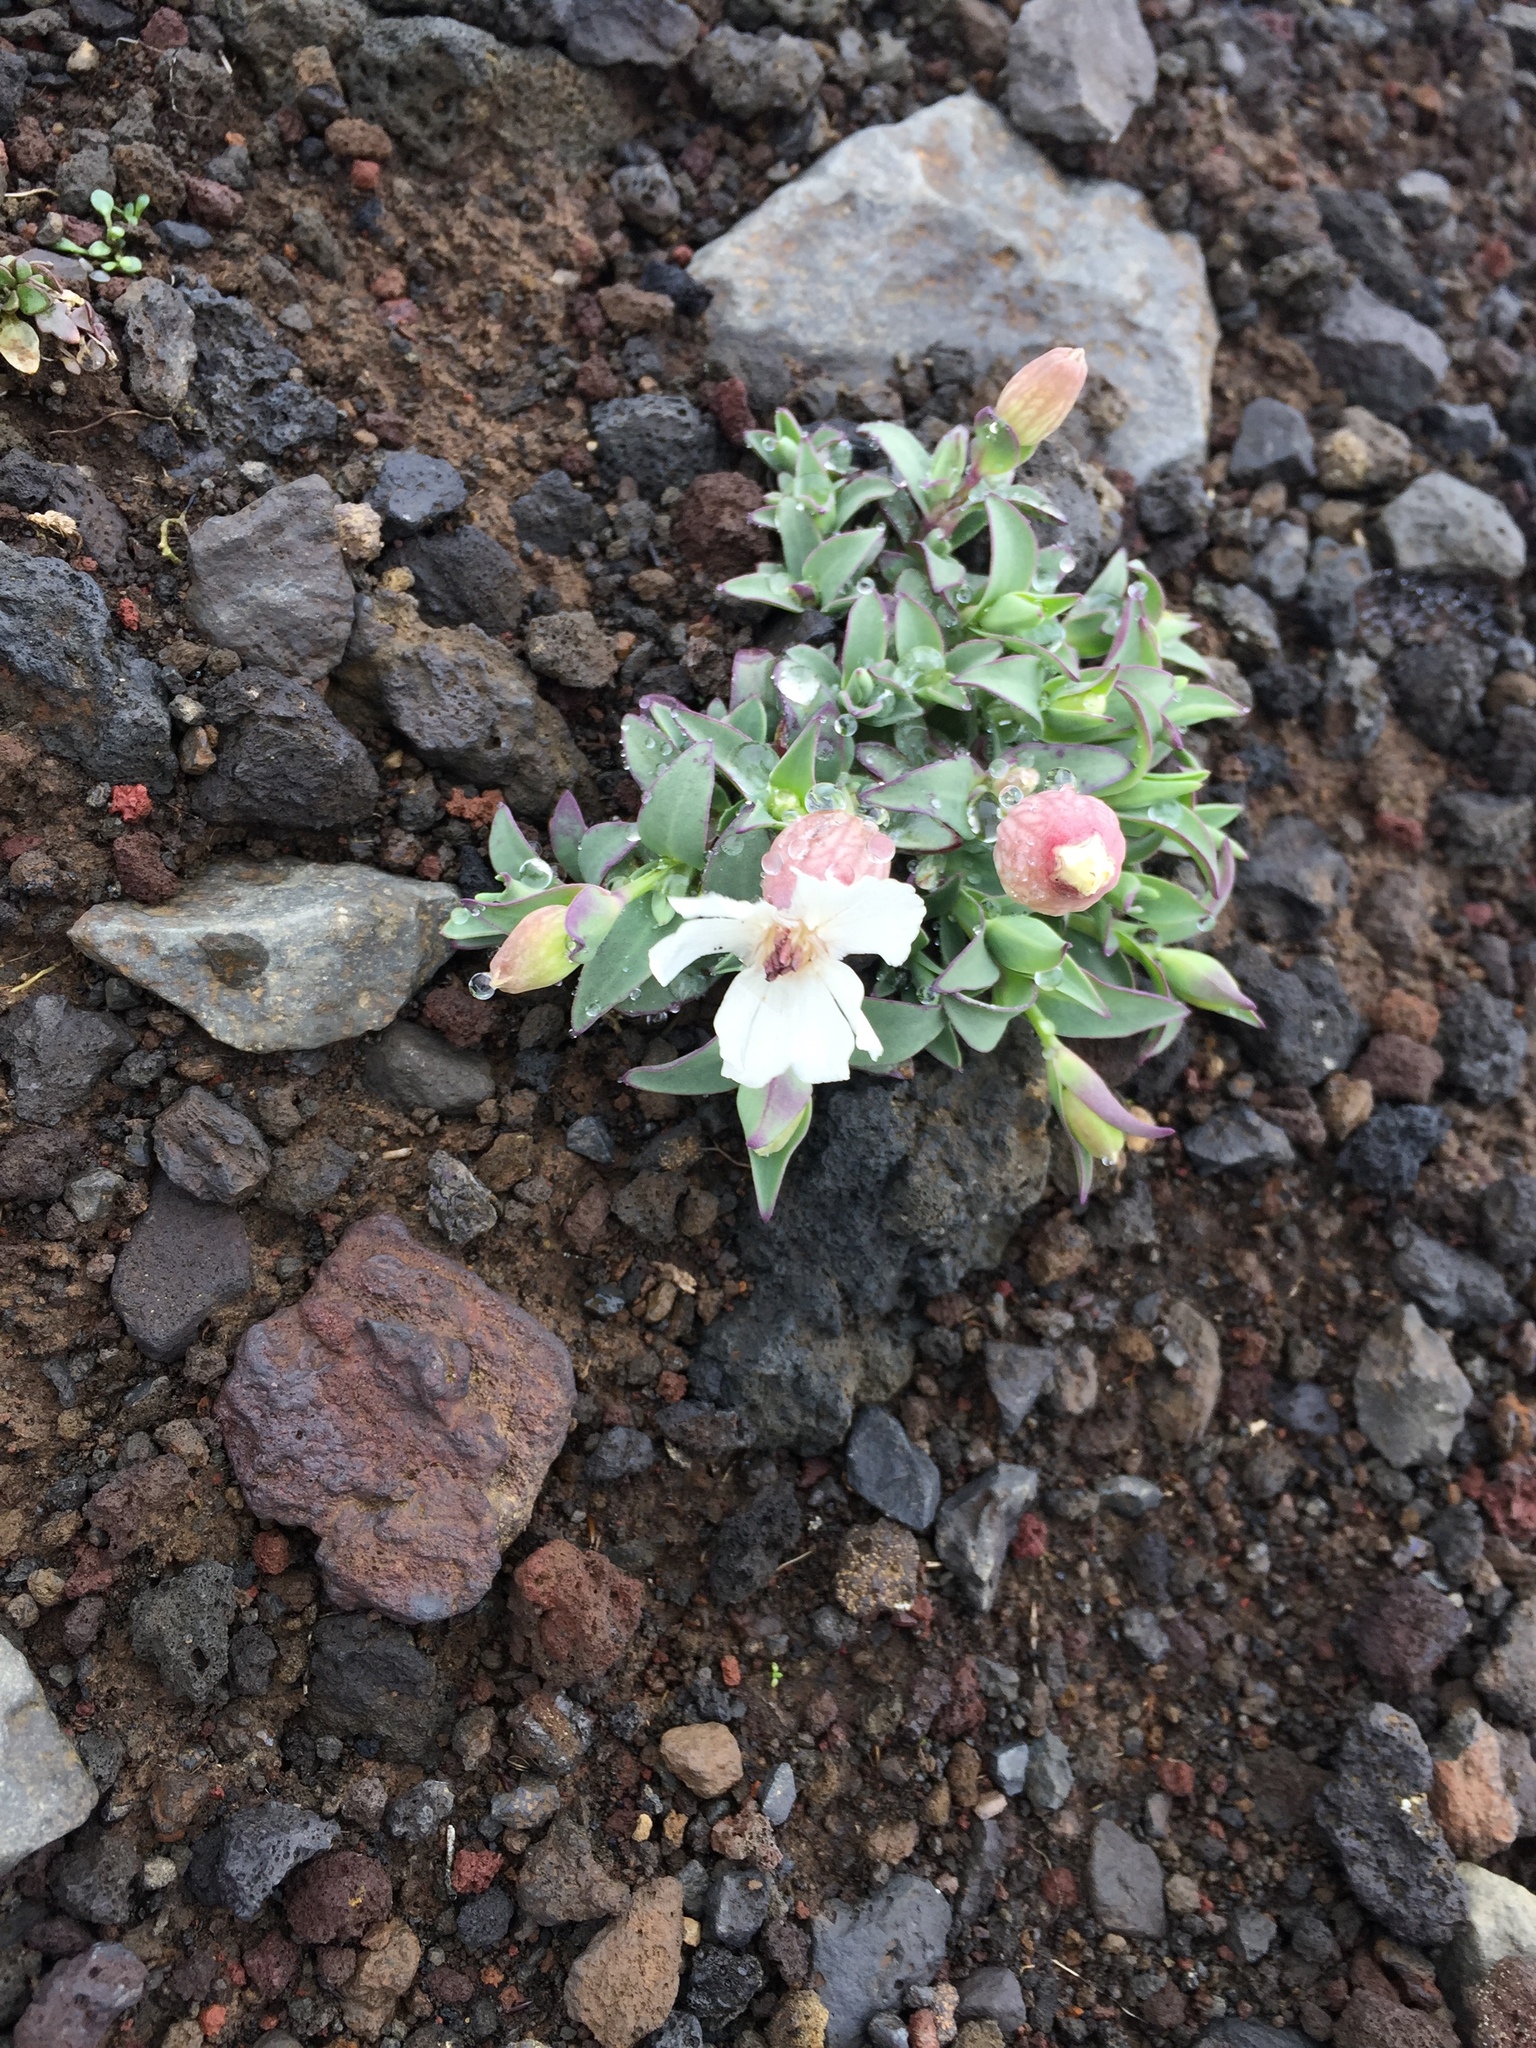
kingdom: Plantae
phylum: Tracheophyta
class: Magnoliopsida
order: Caryophyllales
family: Caryophyllaceae
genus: Silene
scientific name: Silene uniflora
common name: Sea campion
